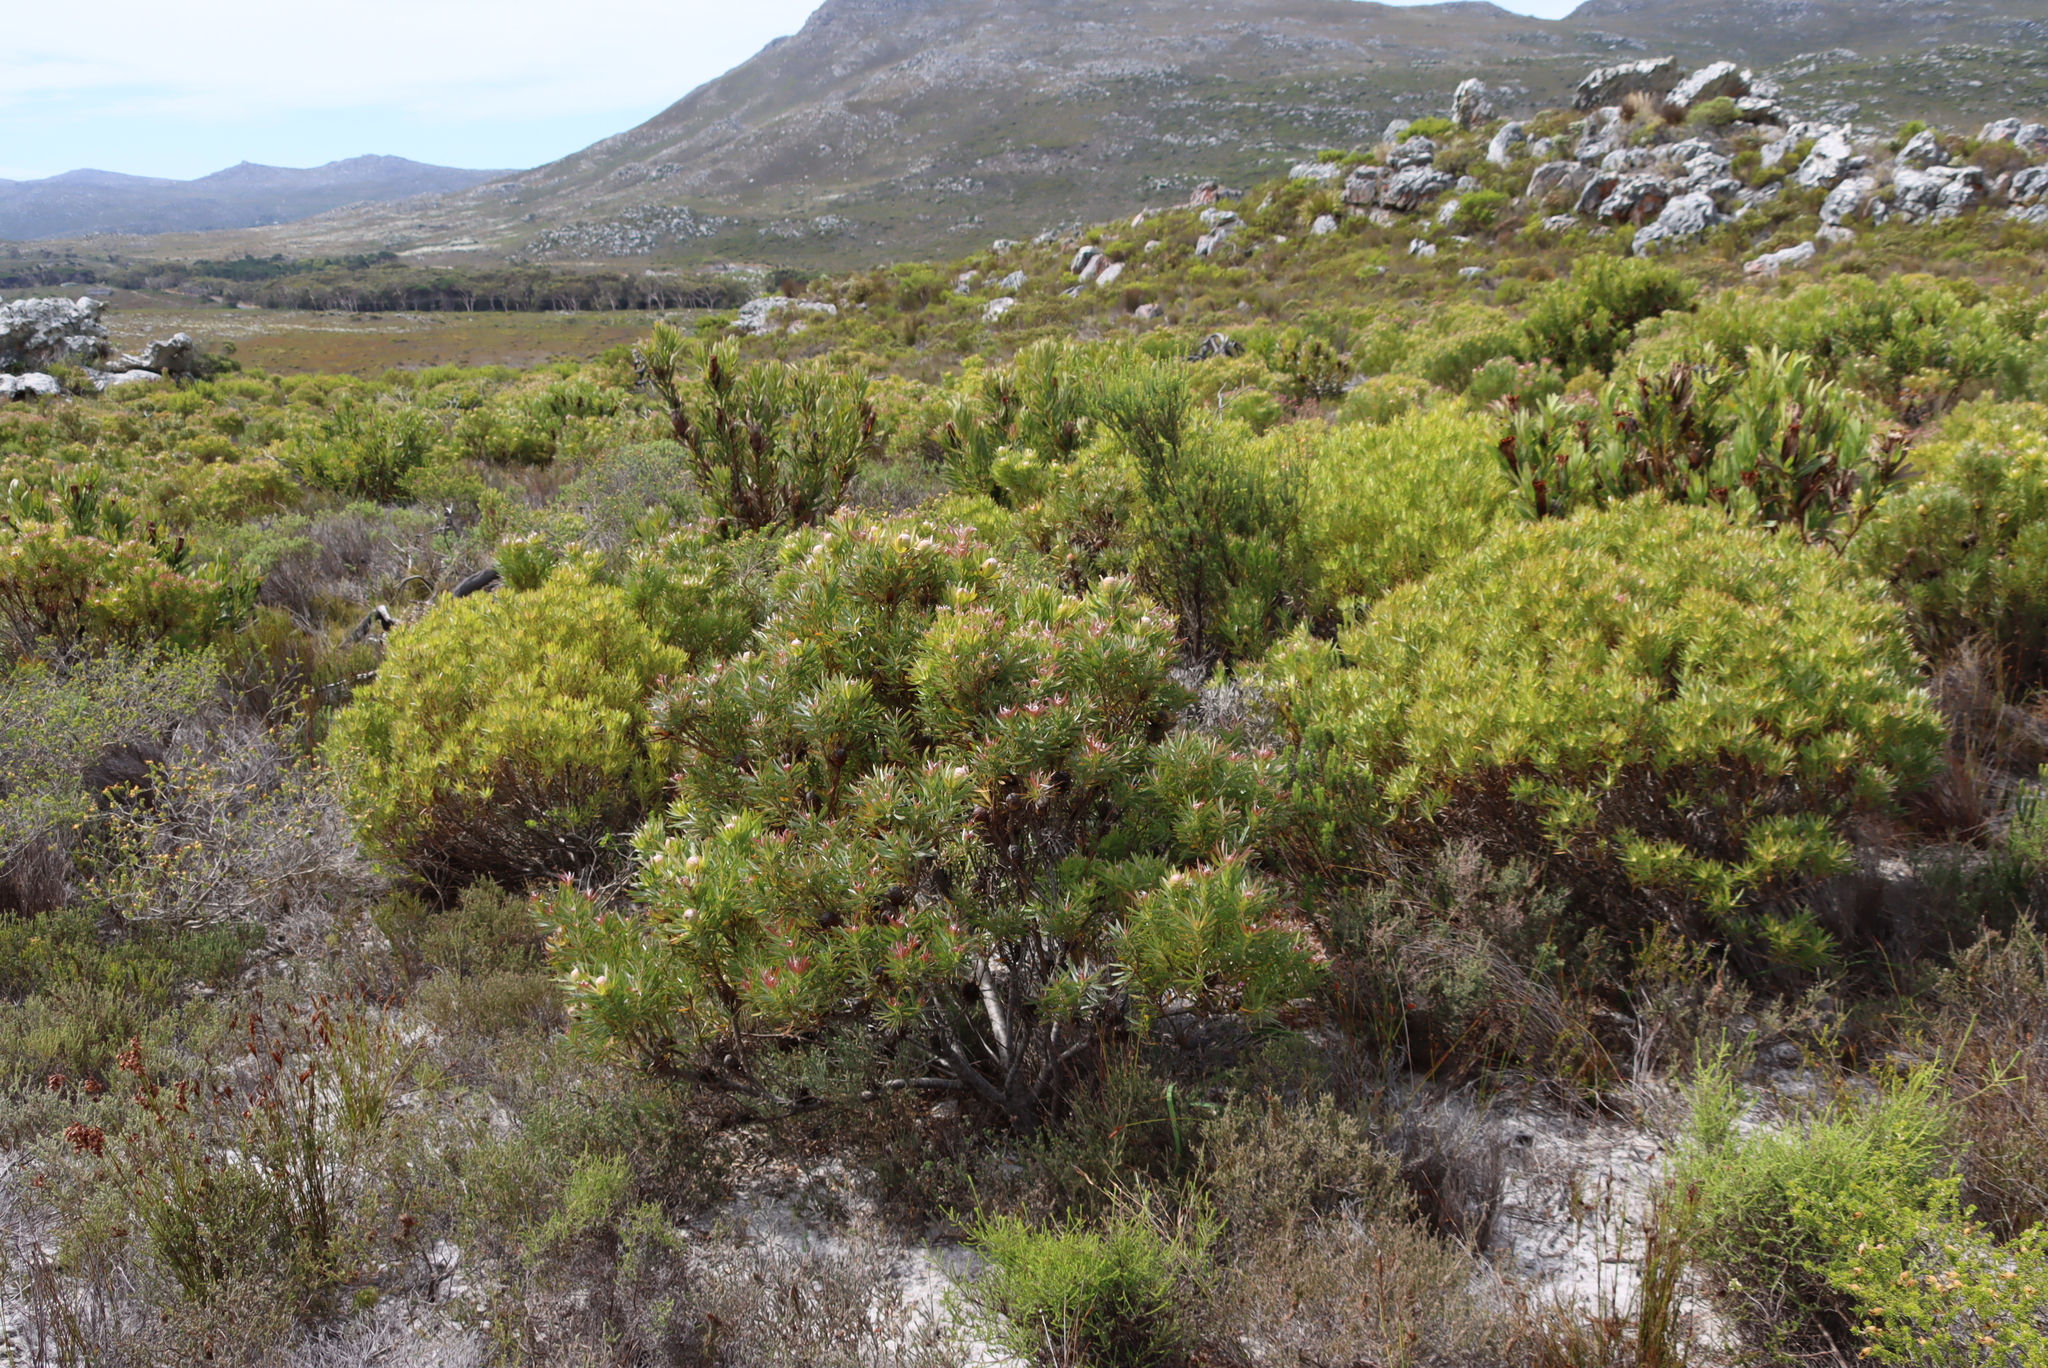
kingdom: Plantae
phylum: Tracheophyta
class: Magnoliopsida
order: Proteales
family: Proteaceae
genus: Leucadendron
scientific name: Leucadendron xanthoconus
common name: Sickle-leaf conebush
